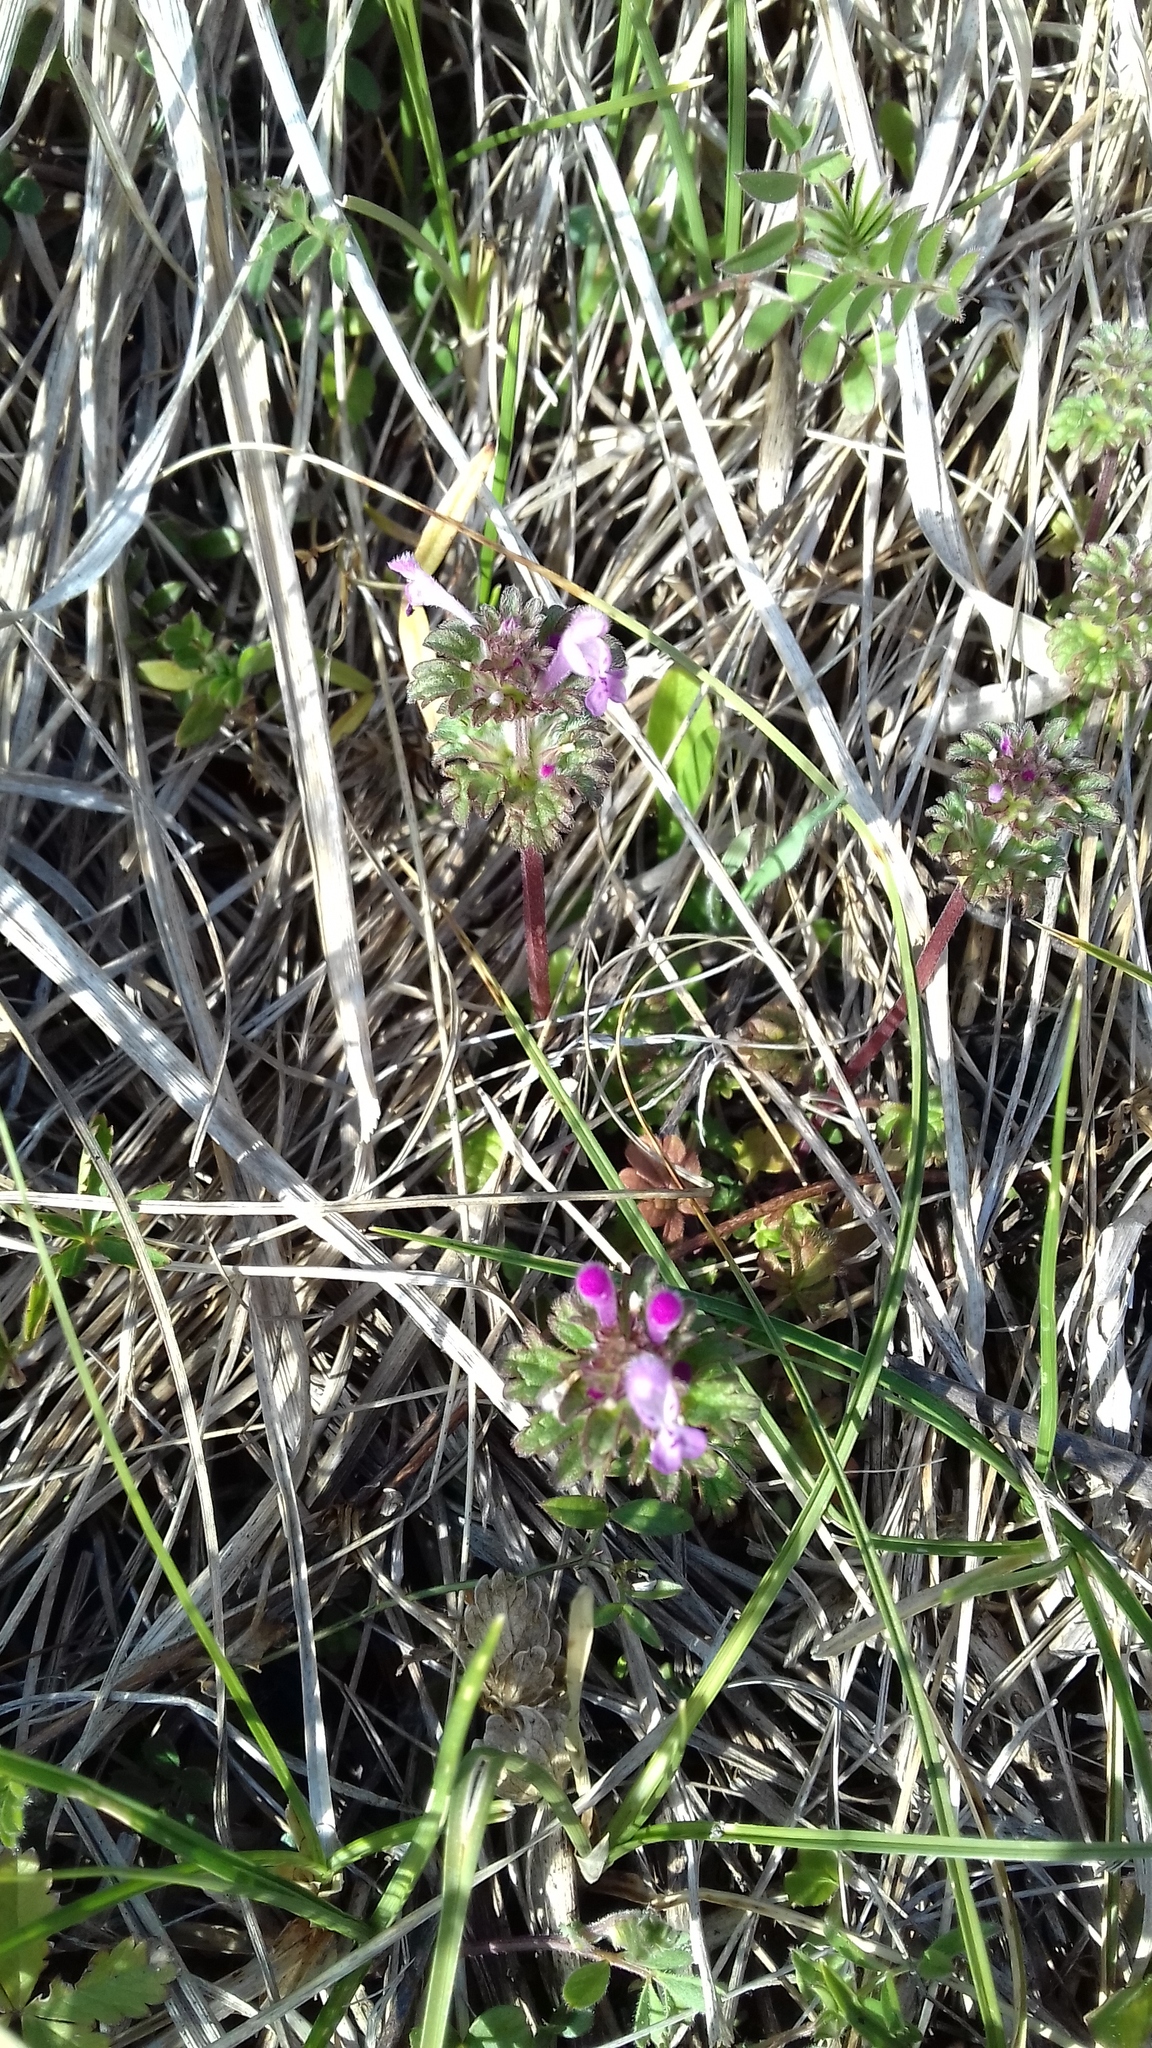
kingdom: Plantae
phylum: Tracheophyta
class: Magnoliopsida
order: Lamiales
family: Lamiaceae
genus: Lamium
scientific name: Lamium amplexicaule
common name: Henbit dead-nettle
